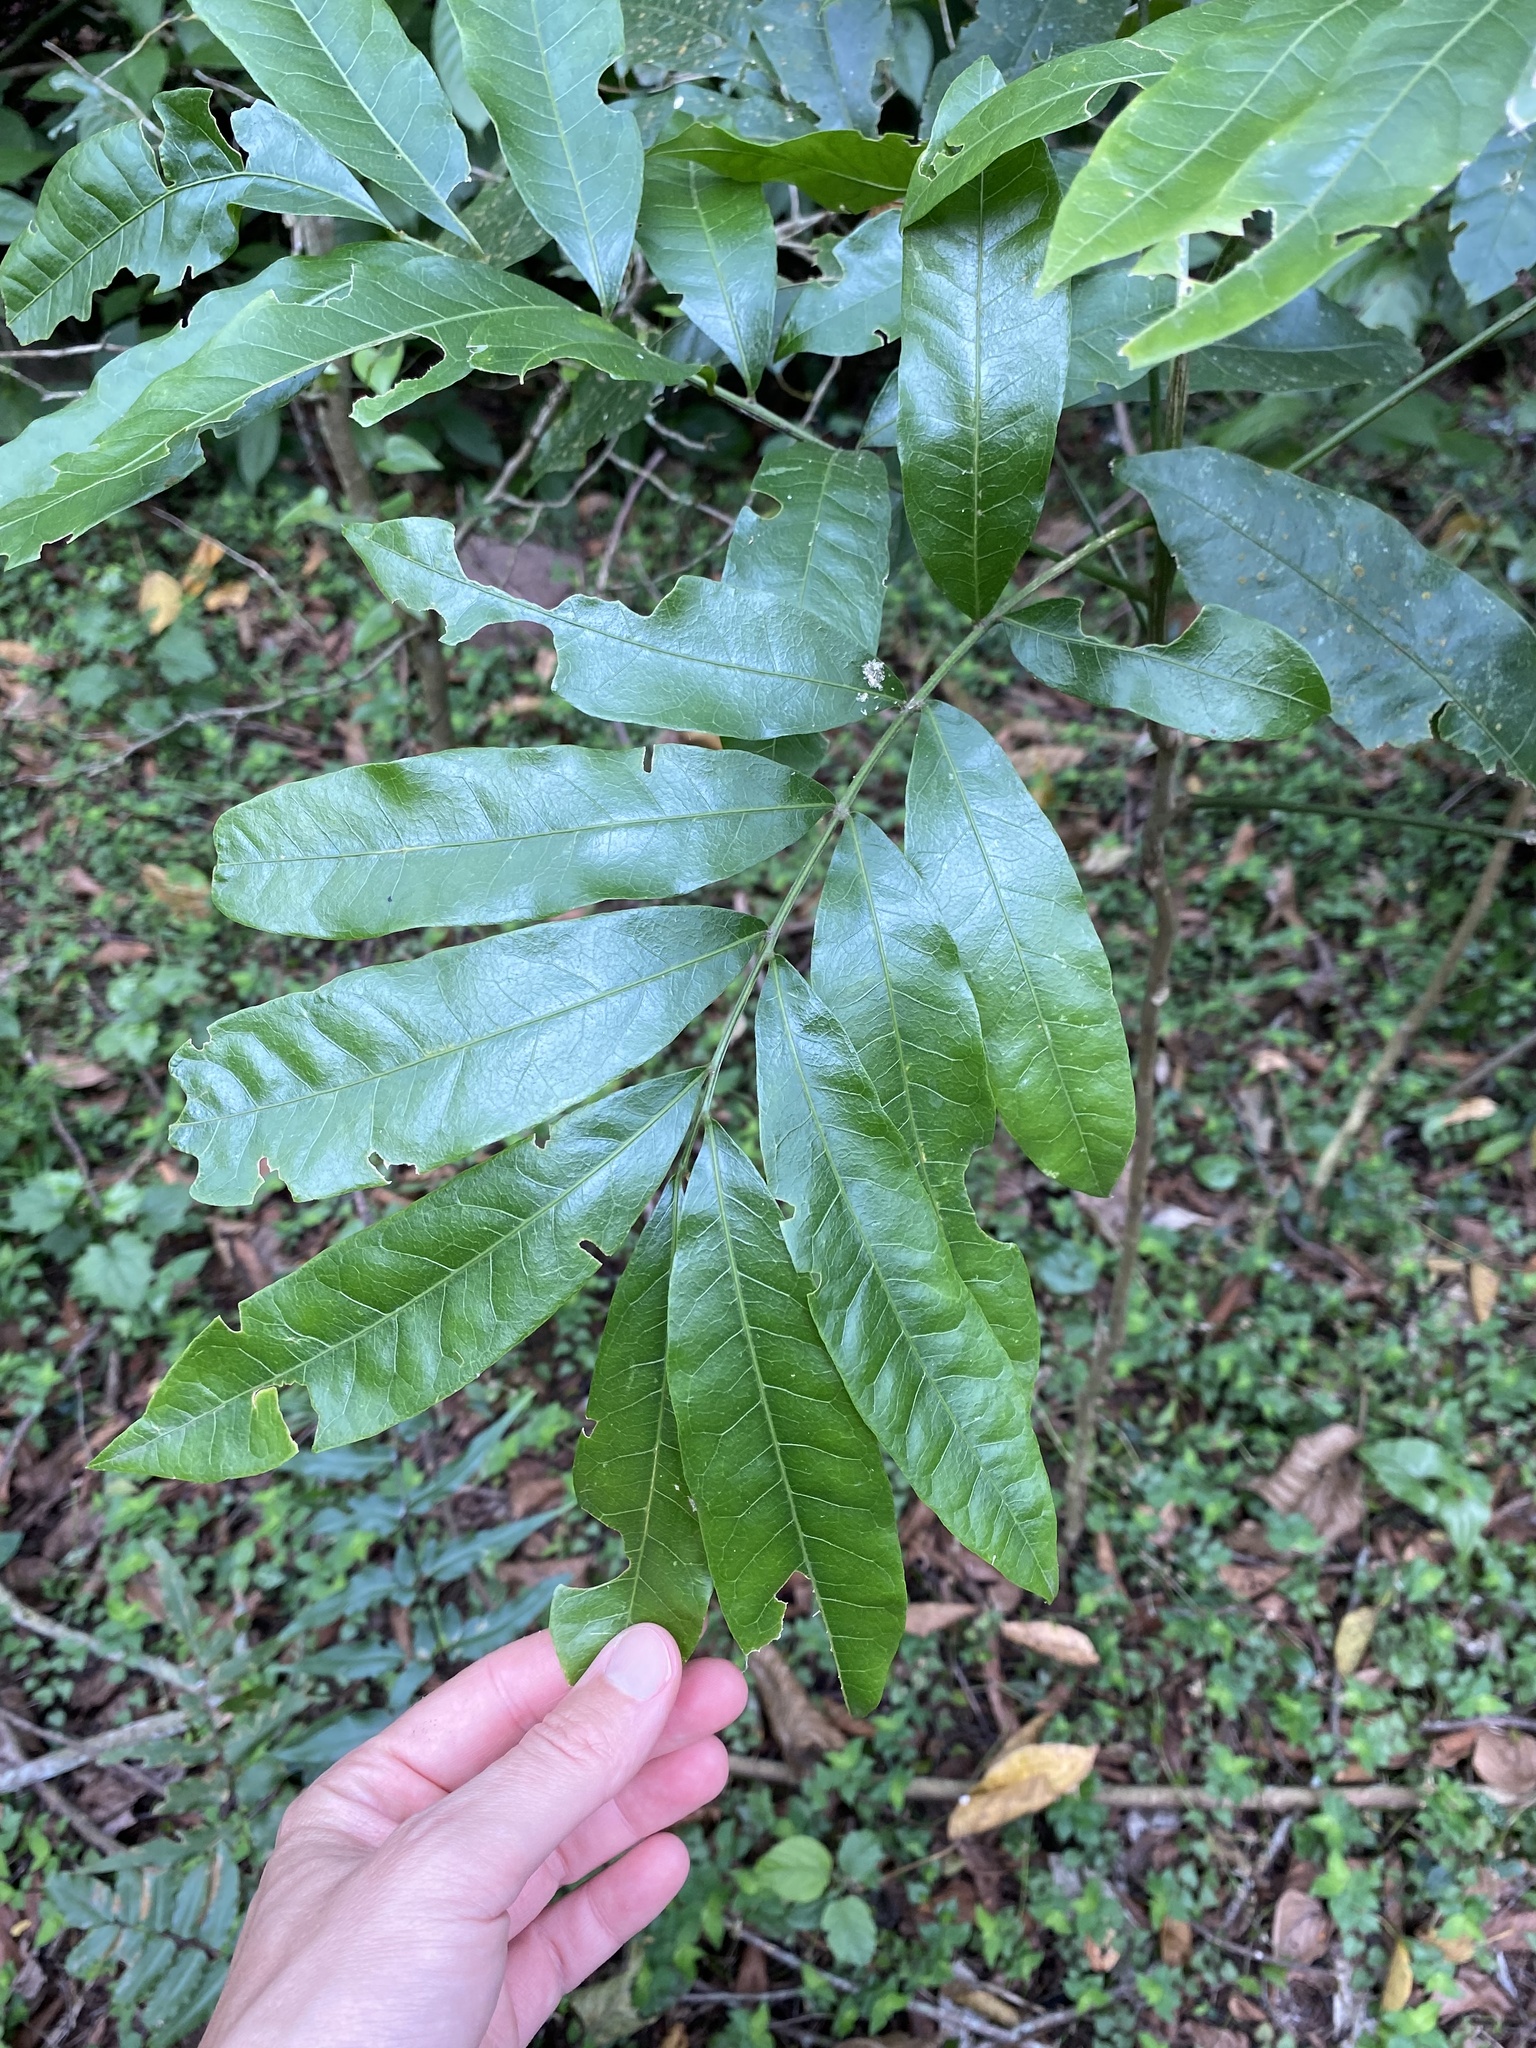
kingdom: Plantae
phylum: Tracheophyta
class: Magnoliopsida
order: Sapindales
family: Sapindaceae
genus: Deinbollia
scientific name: Deinbollia oblongifolia
